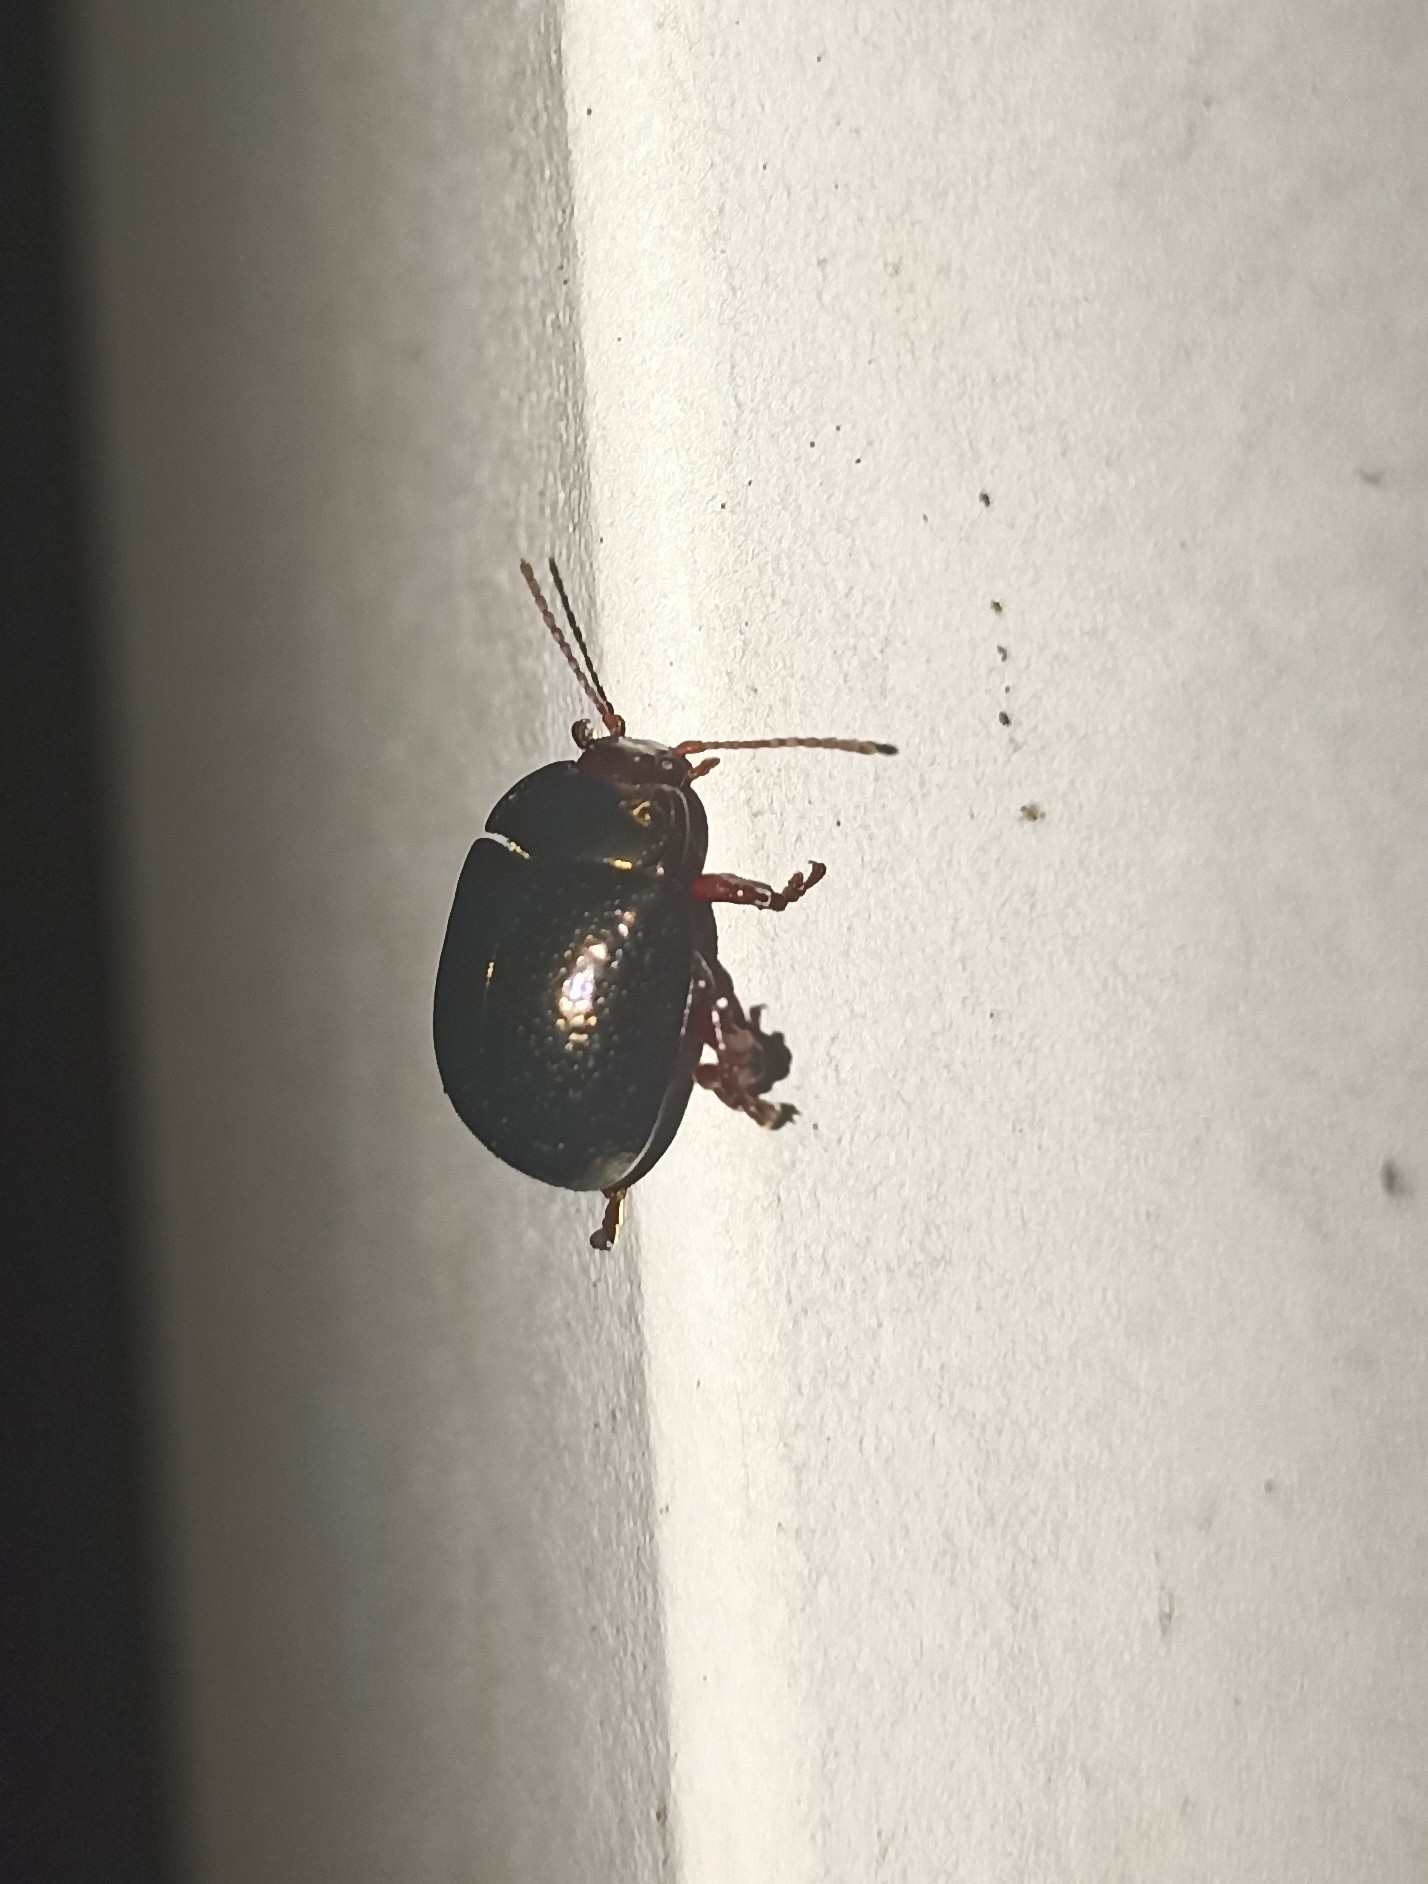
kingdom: Animalia
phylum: Arthropoda
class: Insecta
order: Coleoptera
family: Chrysomelidae
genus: Chrysolina
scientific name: Chrysolina bankii
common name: Leaf beetle
